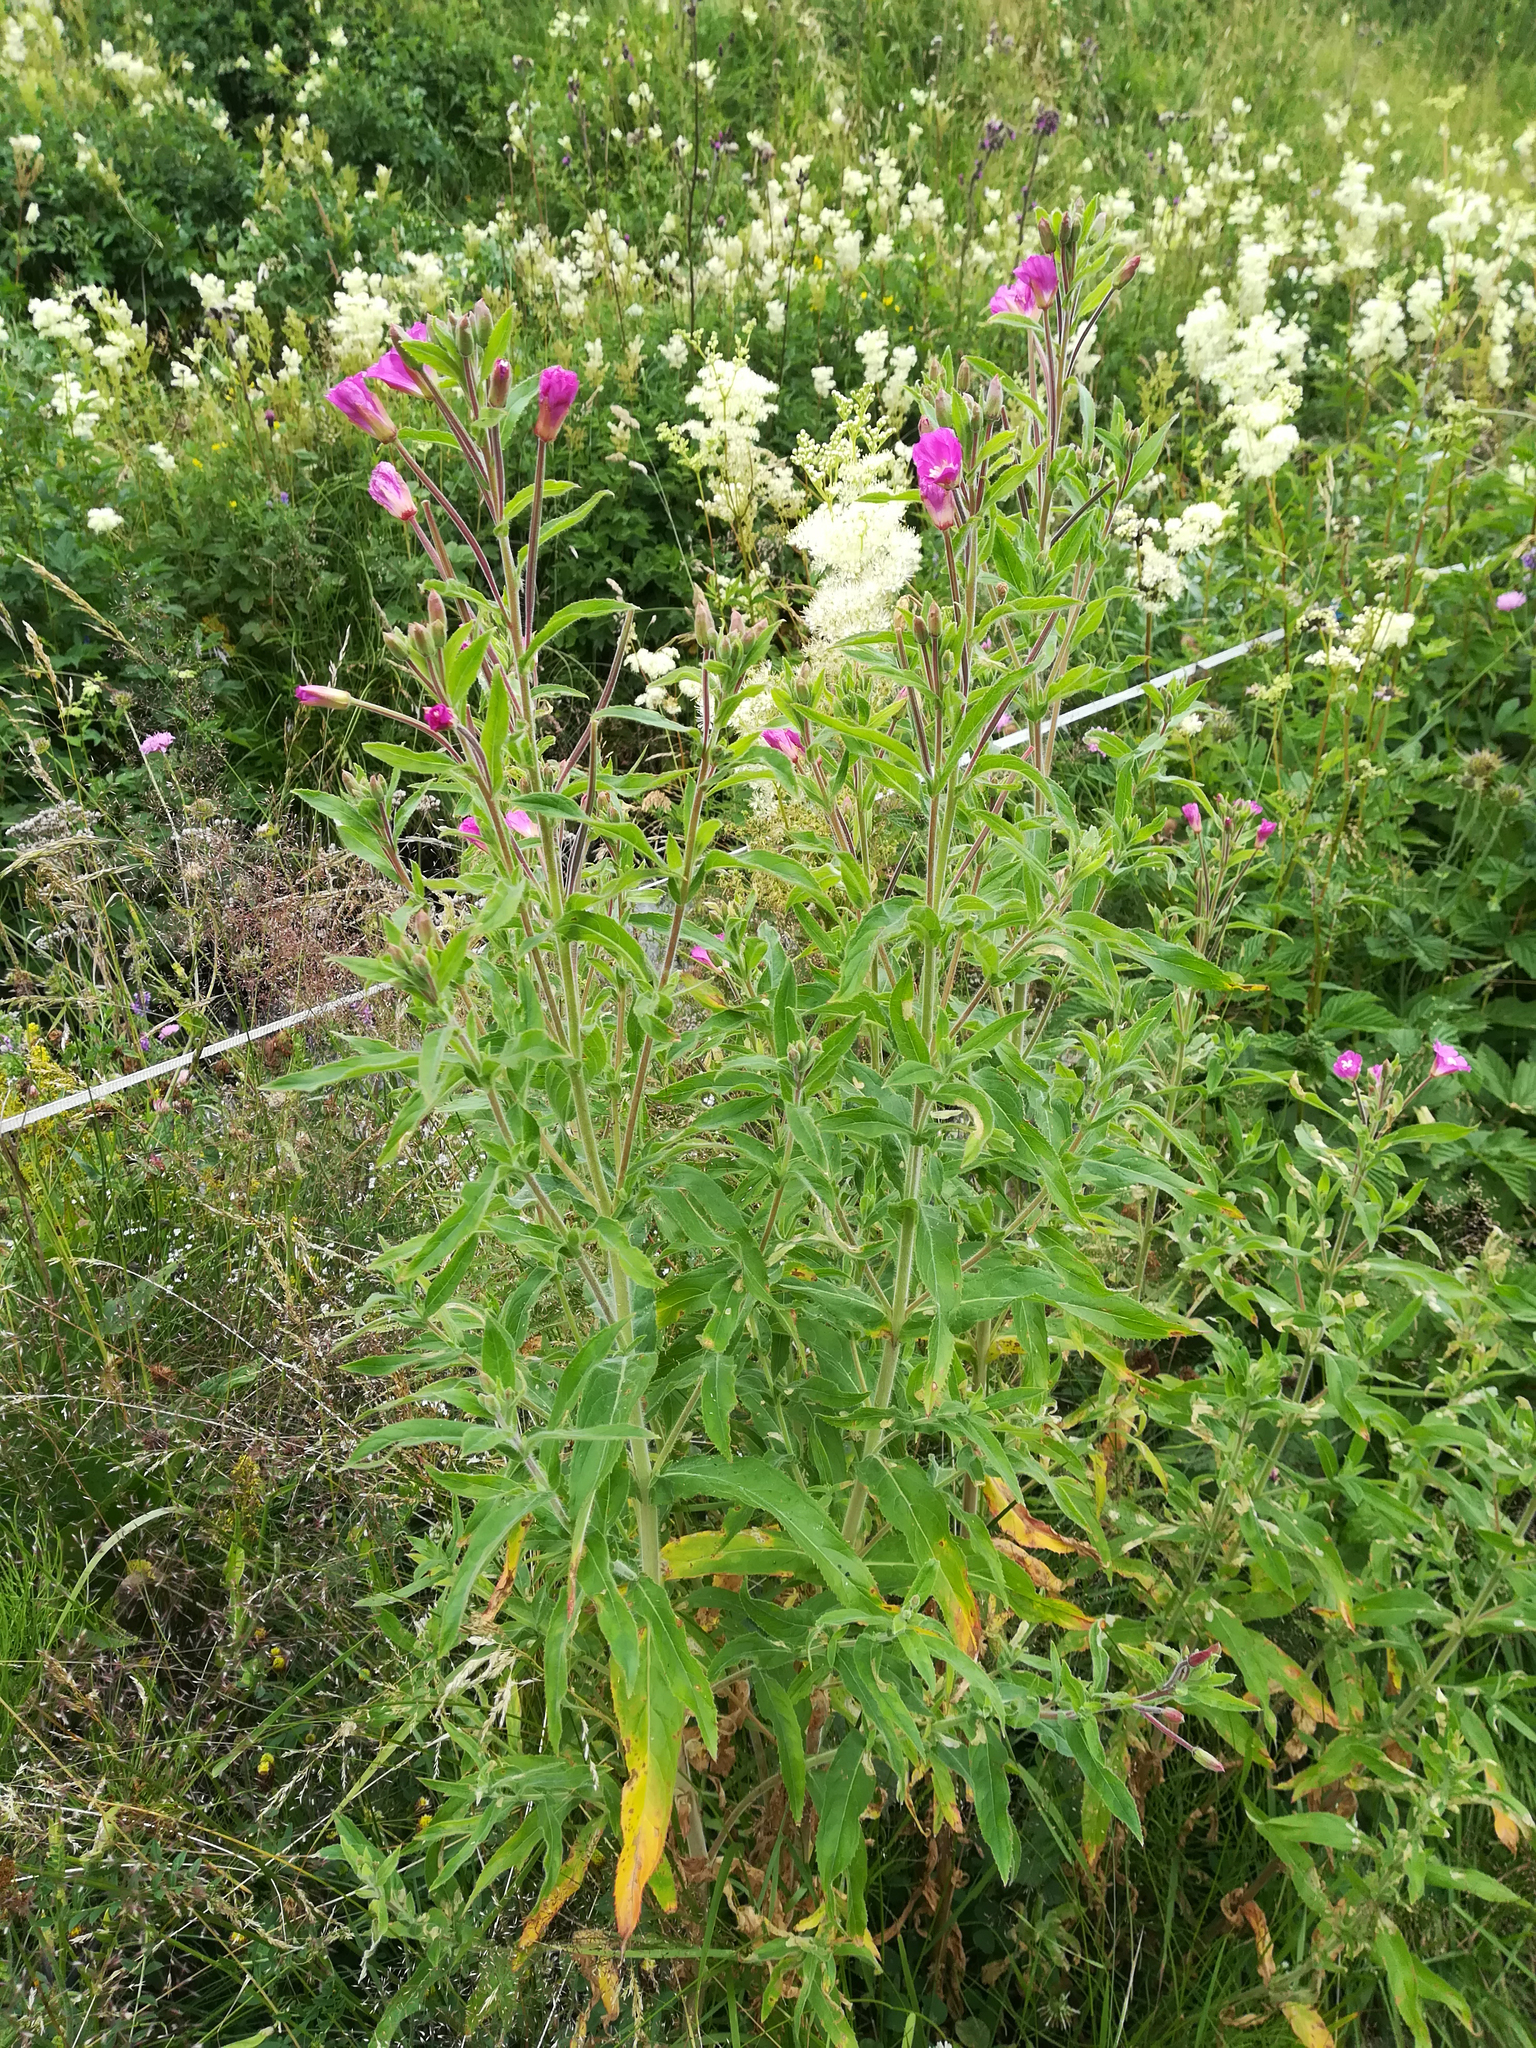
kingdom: Plantae
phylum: Tracheophyta
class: Magnoliopsida
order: Myrtales
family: Onagraceae
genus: Epilobium
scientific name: Epilobium hirsutum
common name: Great willowherb
